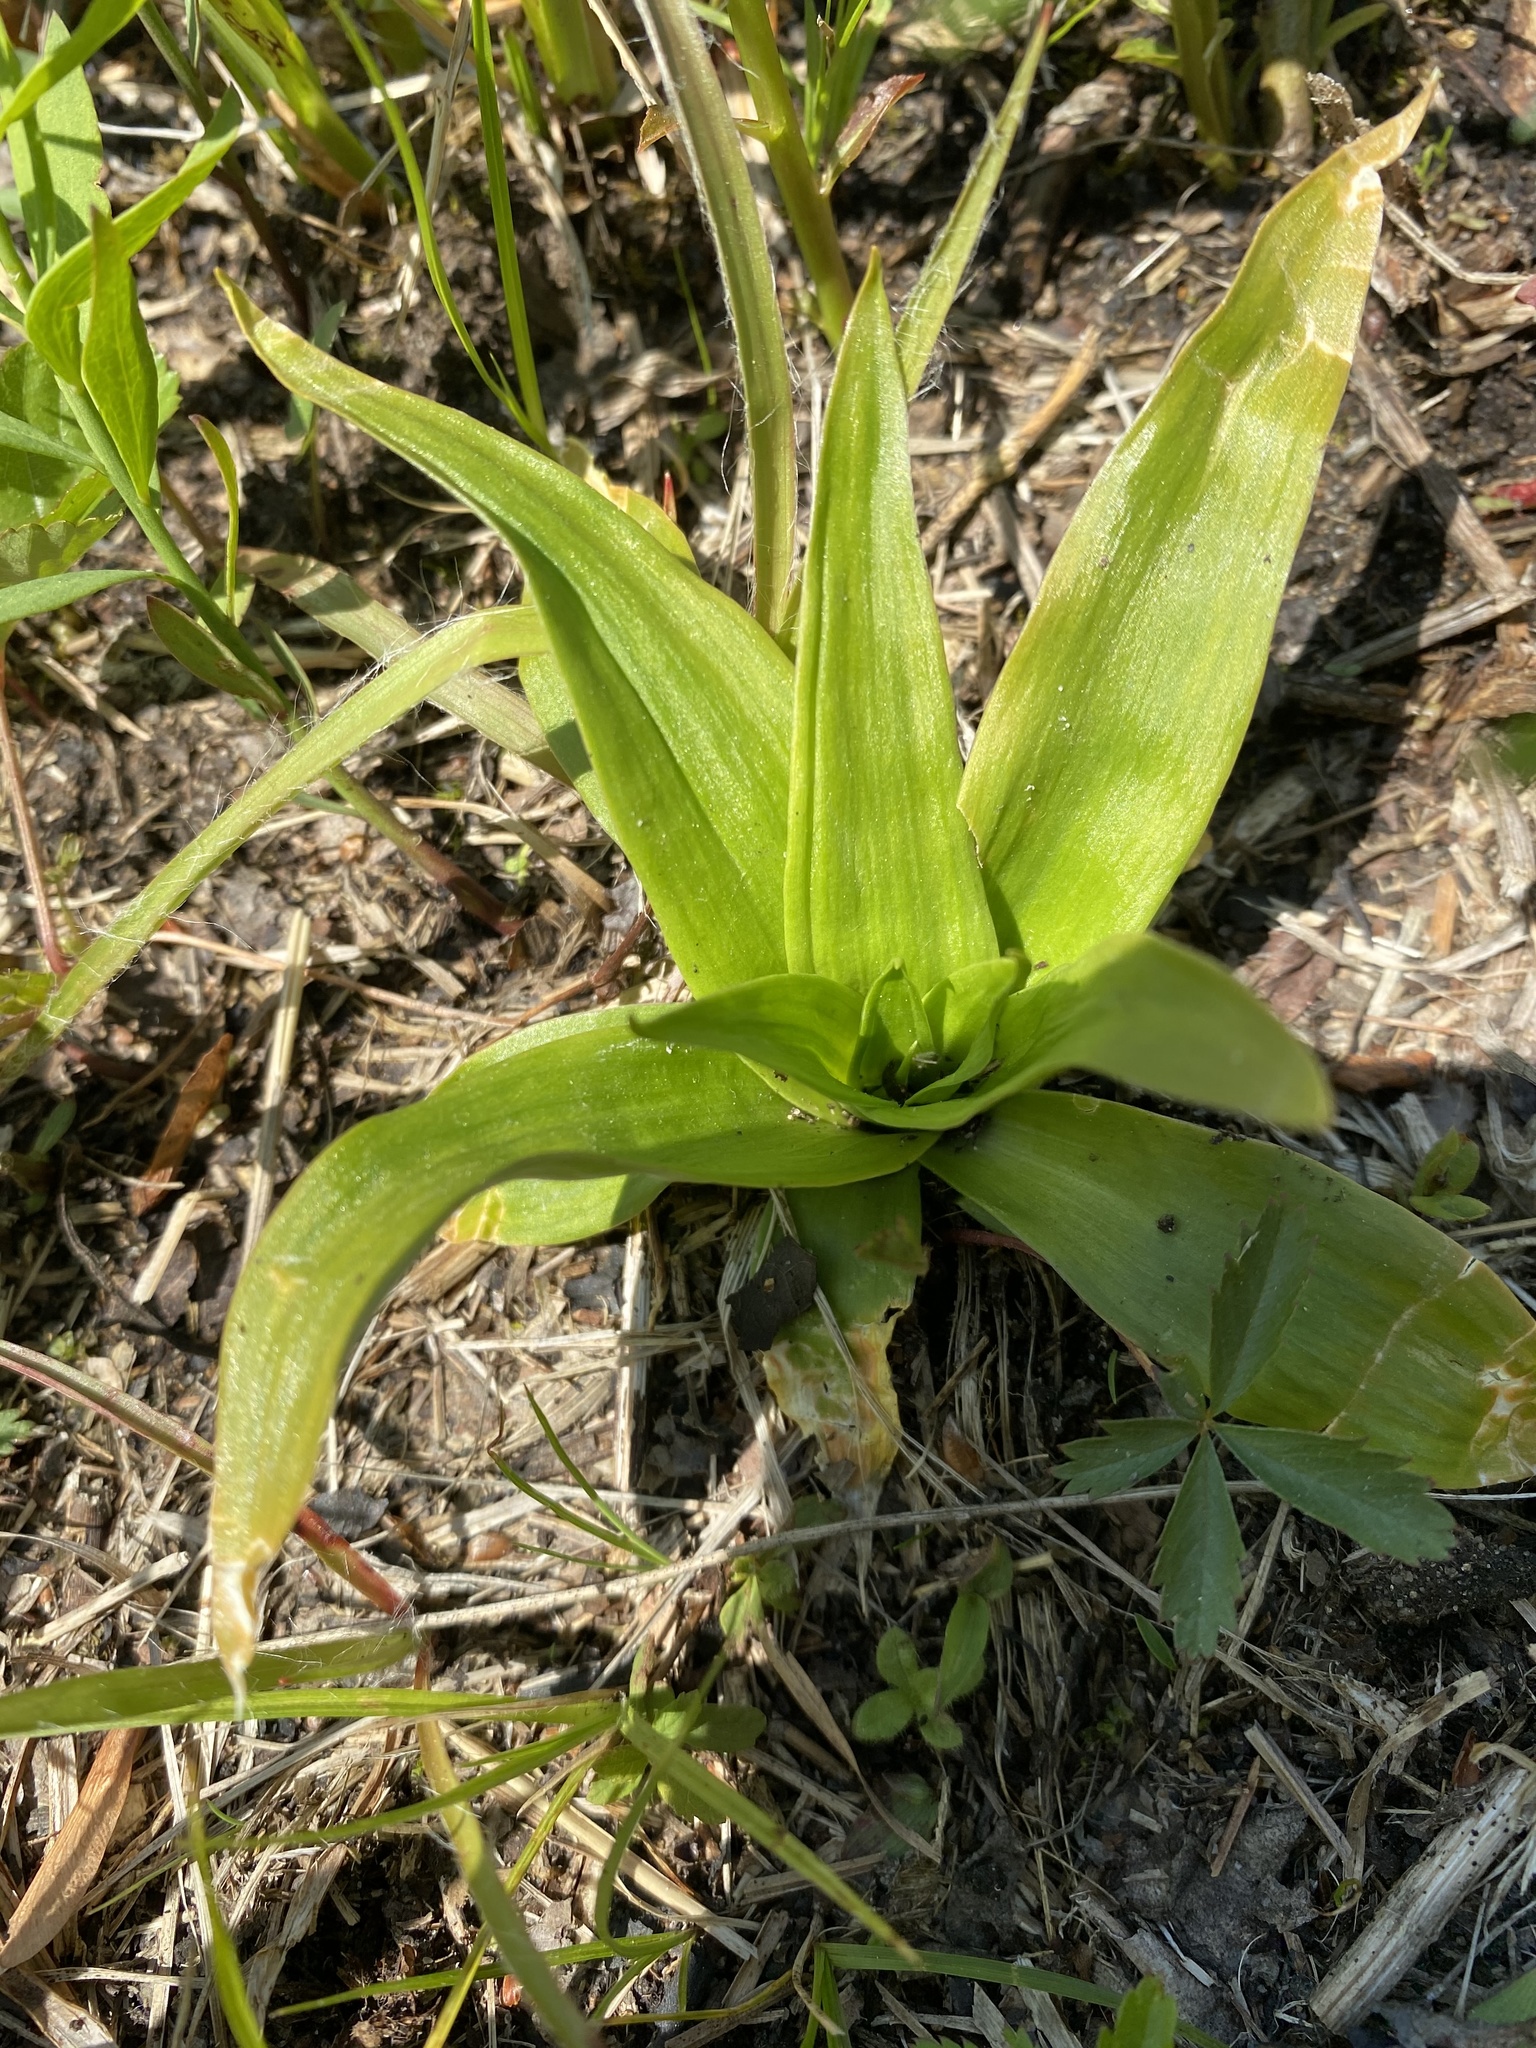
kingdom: Plantae
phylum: Tracheophyta
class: Liliopsida
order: Dioscoreales
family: Nartheciaceae
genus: Aletris
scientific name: Aletris farinosa
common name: Colicroot
